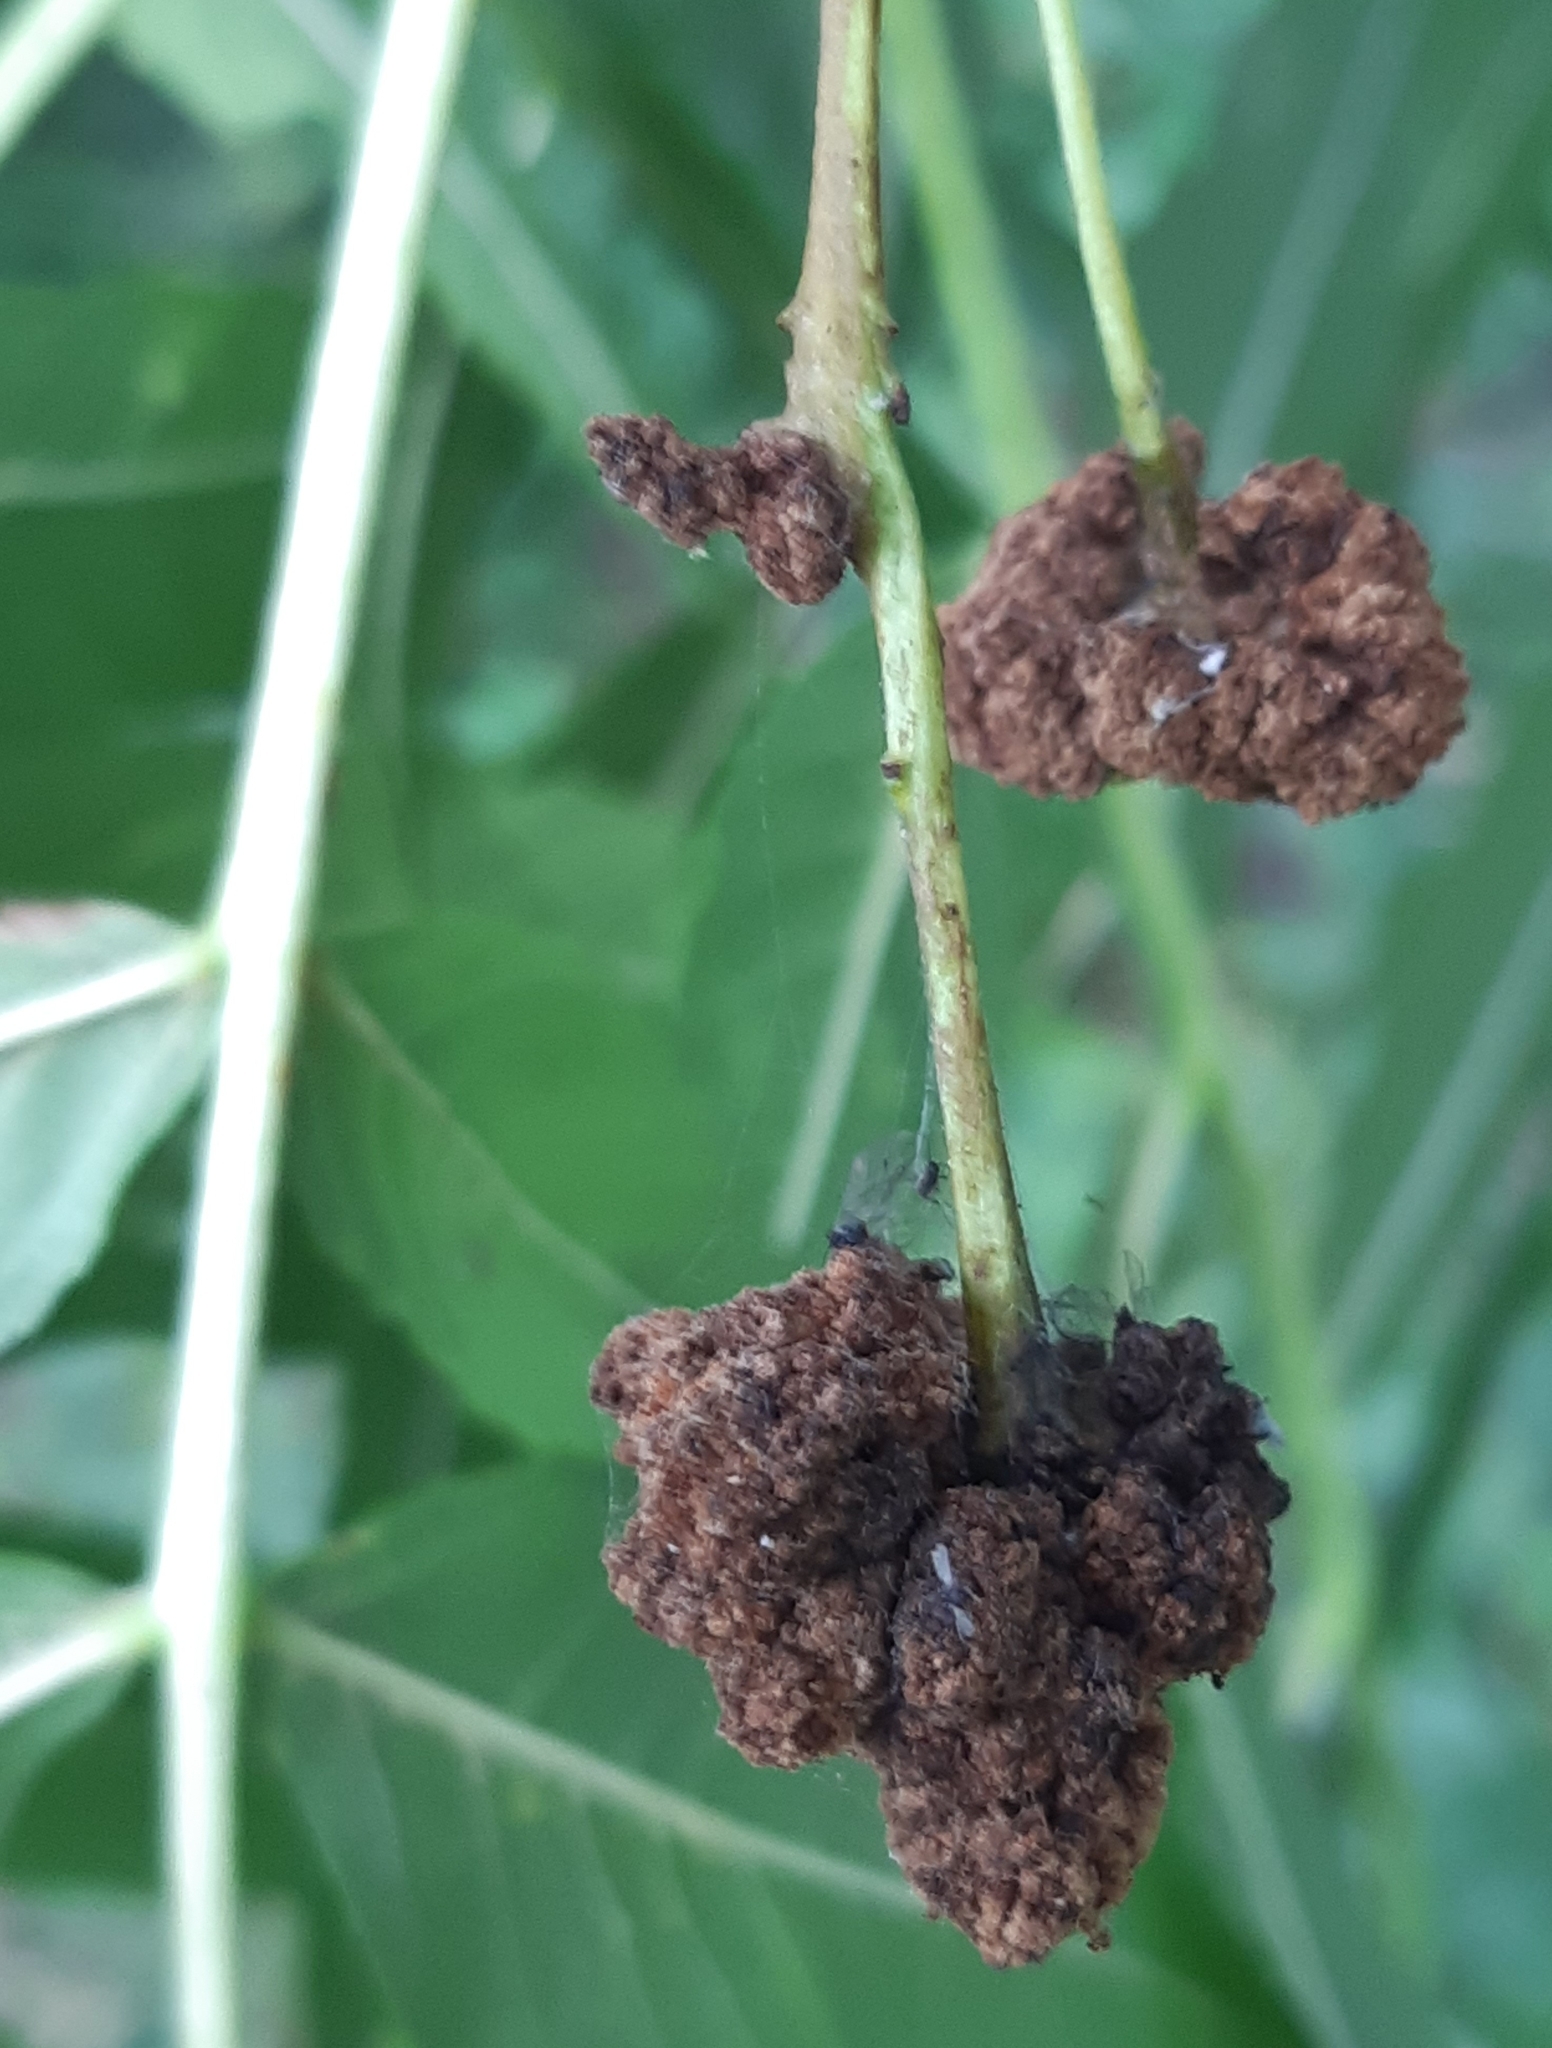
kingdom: Animalia
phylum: Arthropoda
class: Arachnida
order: Trombidiformes
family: Eriophyidae
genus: Aceria
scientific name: Aceria fraxinivora
